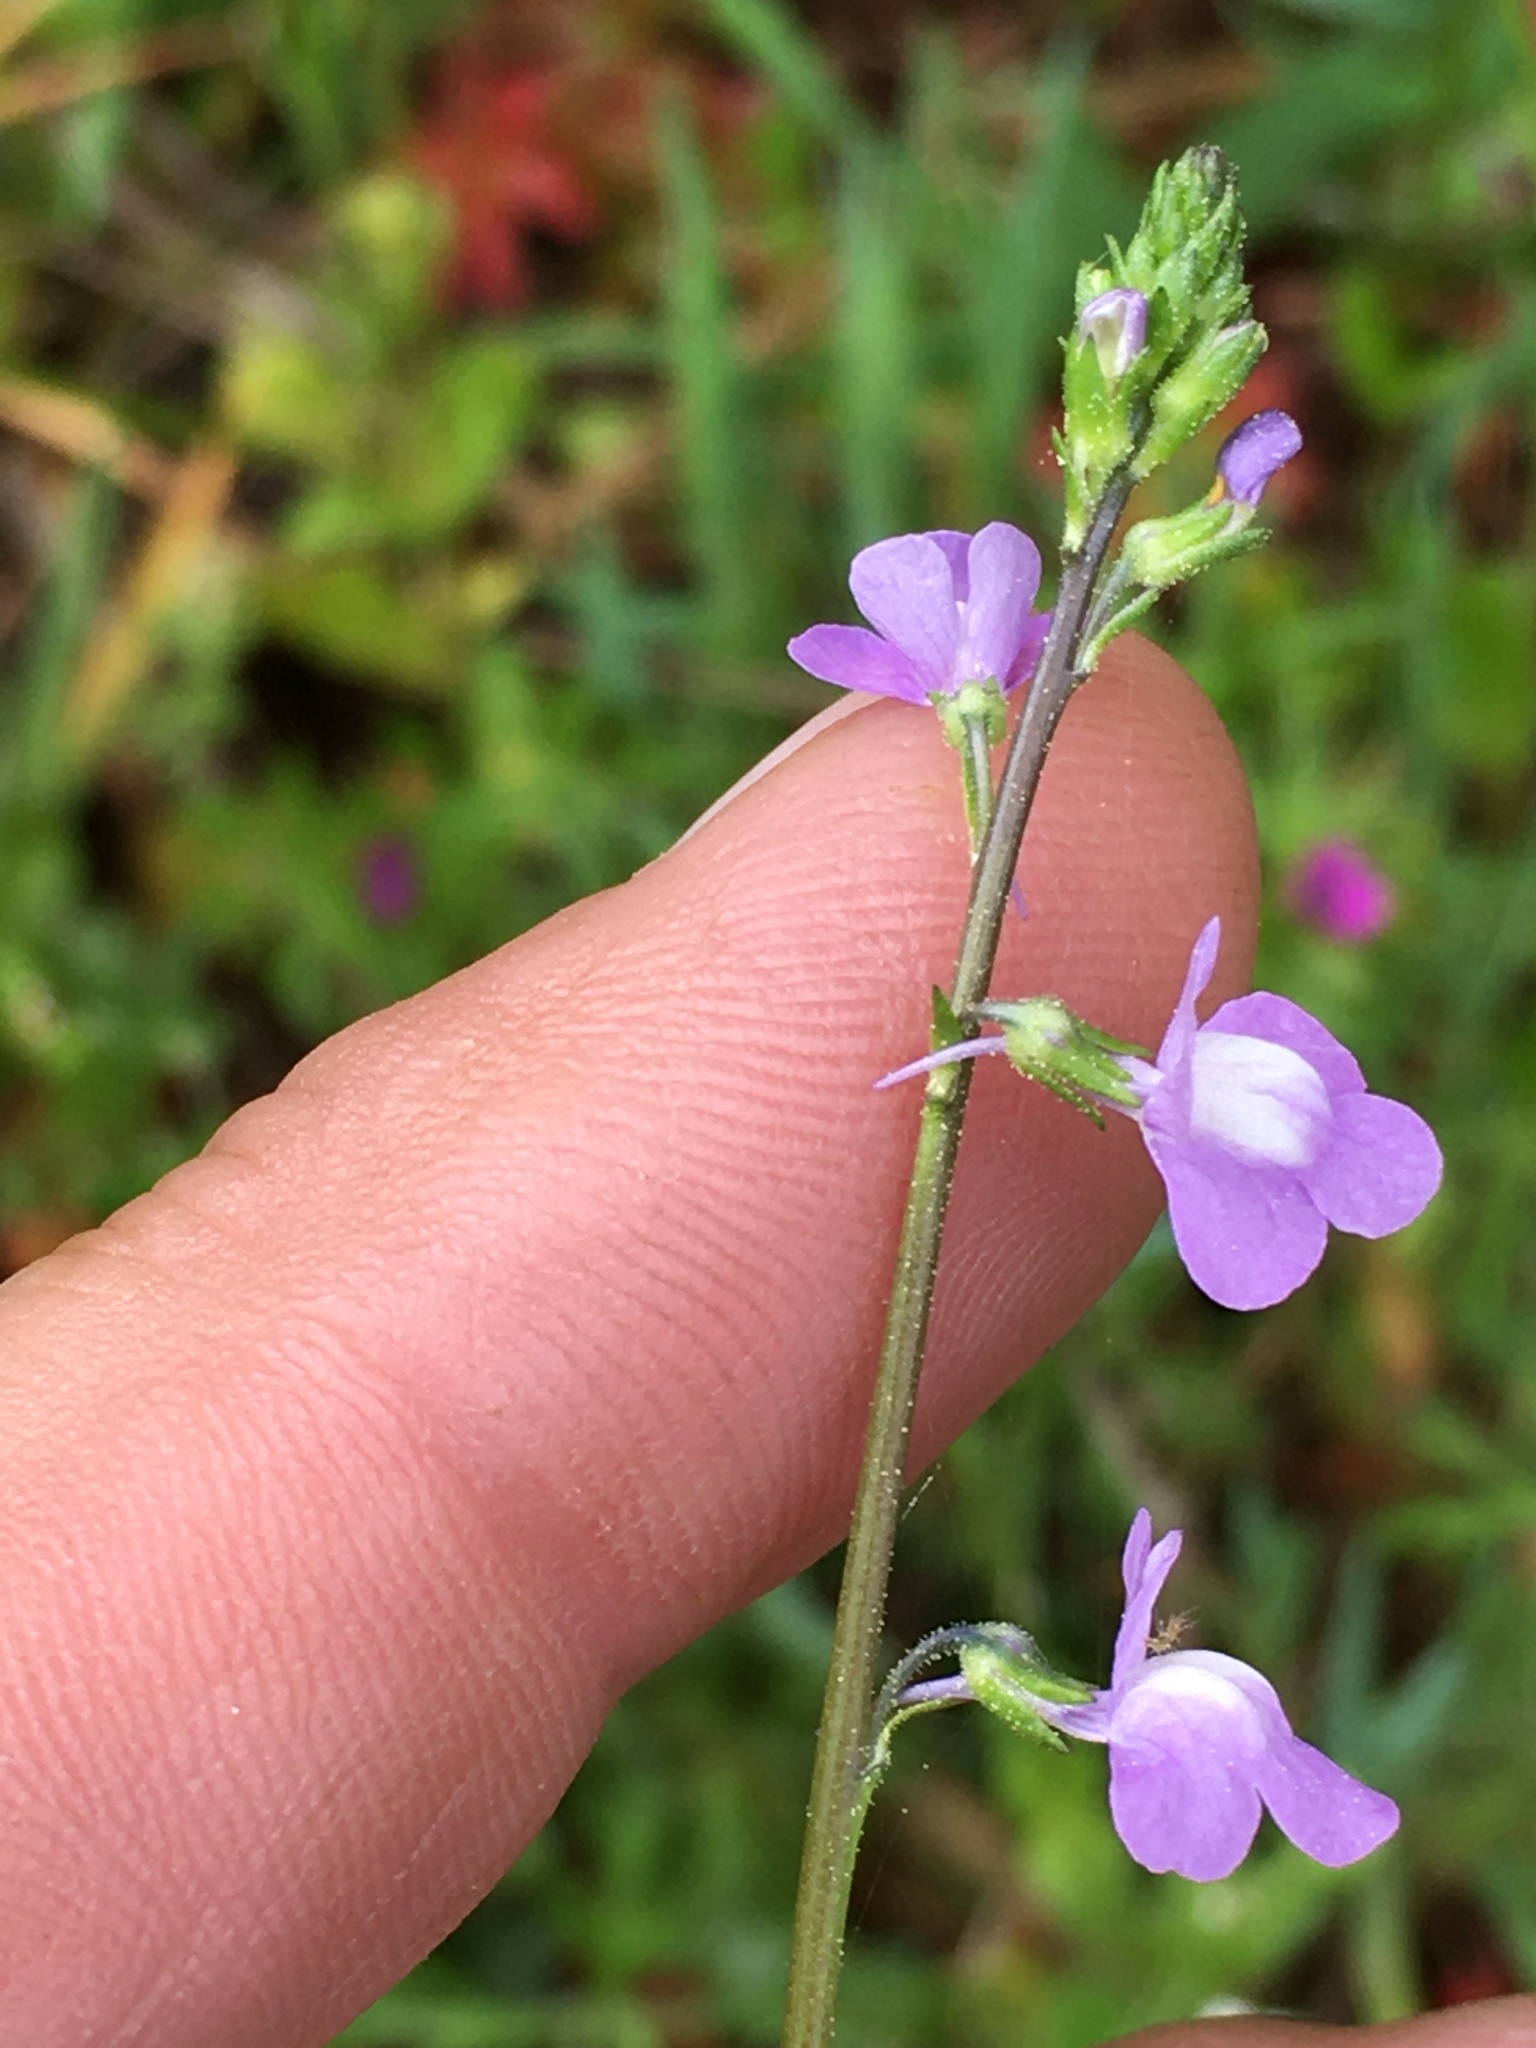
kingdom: Plantae
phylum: Tracheophyta
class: Magnoliopsida
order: Lamiales
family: Plantaginaceae
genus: Nuttallanthus
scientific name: Nuttallanthus canadensis
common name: Blue toadflax
